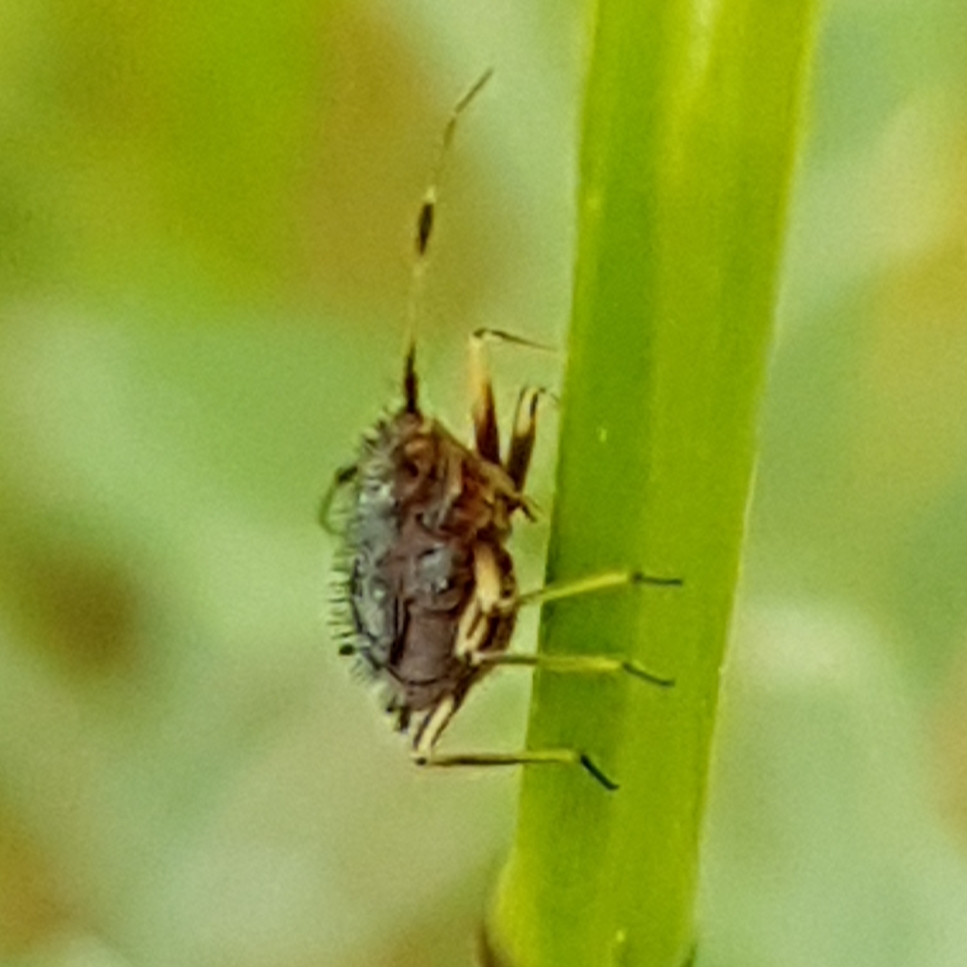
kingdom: Animalia
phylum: Arthropoda
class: Insecta
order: Hemiptera
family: Miridae
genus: Deraeocoris
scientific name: Deraeocoris ruber
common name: Plant bug
